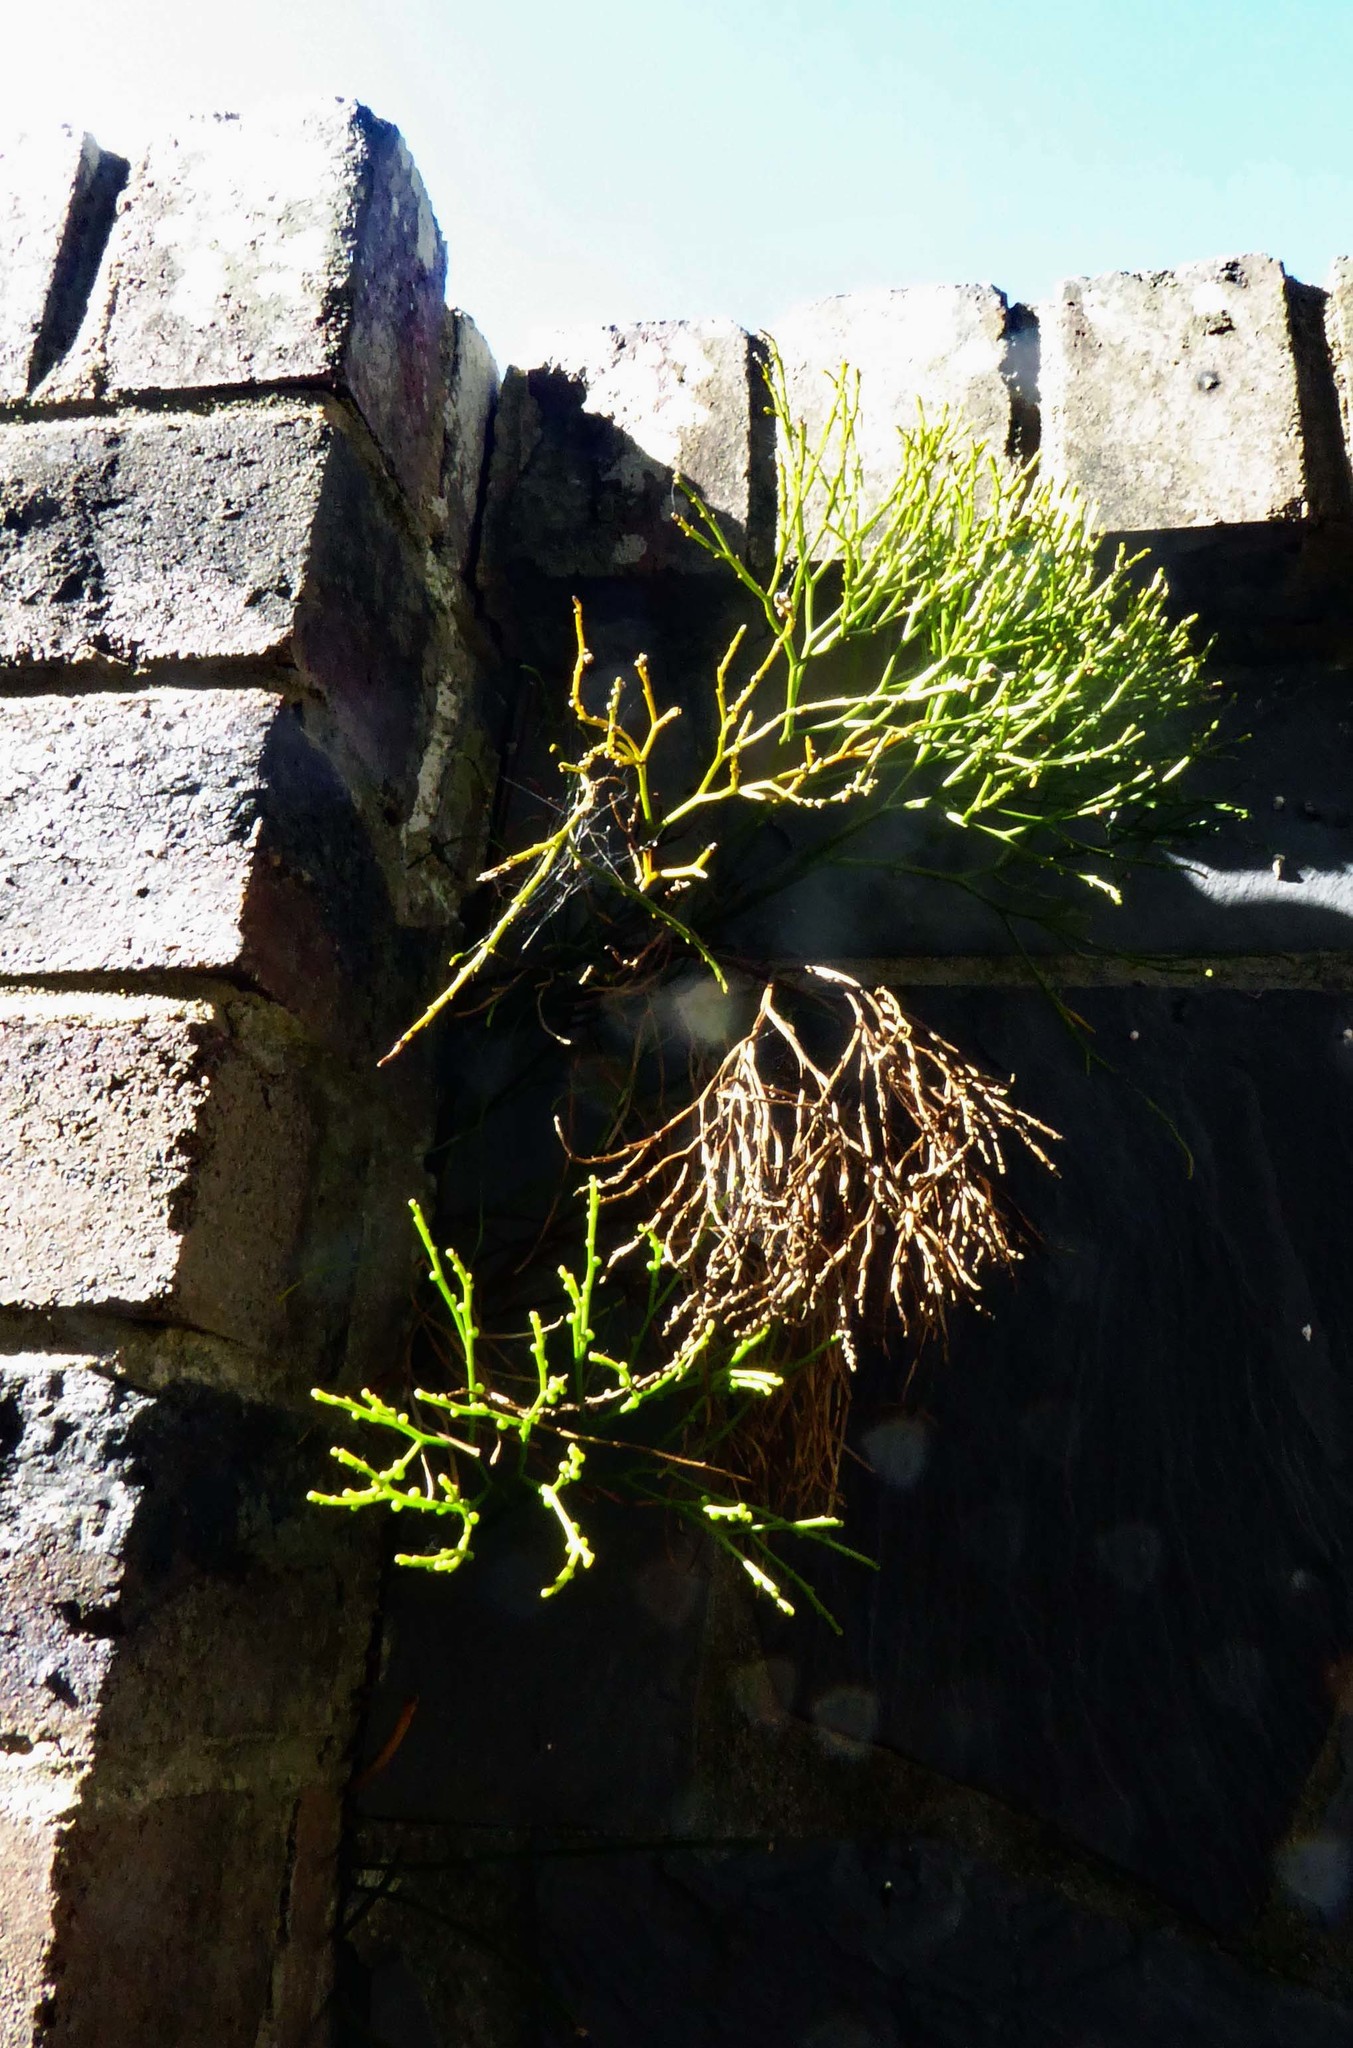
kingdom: Plantae
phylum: Tracheophyta
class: Polypodiopsida
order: Psilotales
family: Psilotaceae
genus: Psilotum
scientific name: Psilotum nudum
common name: Skeleton fork fern
